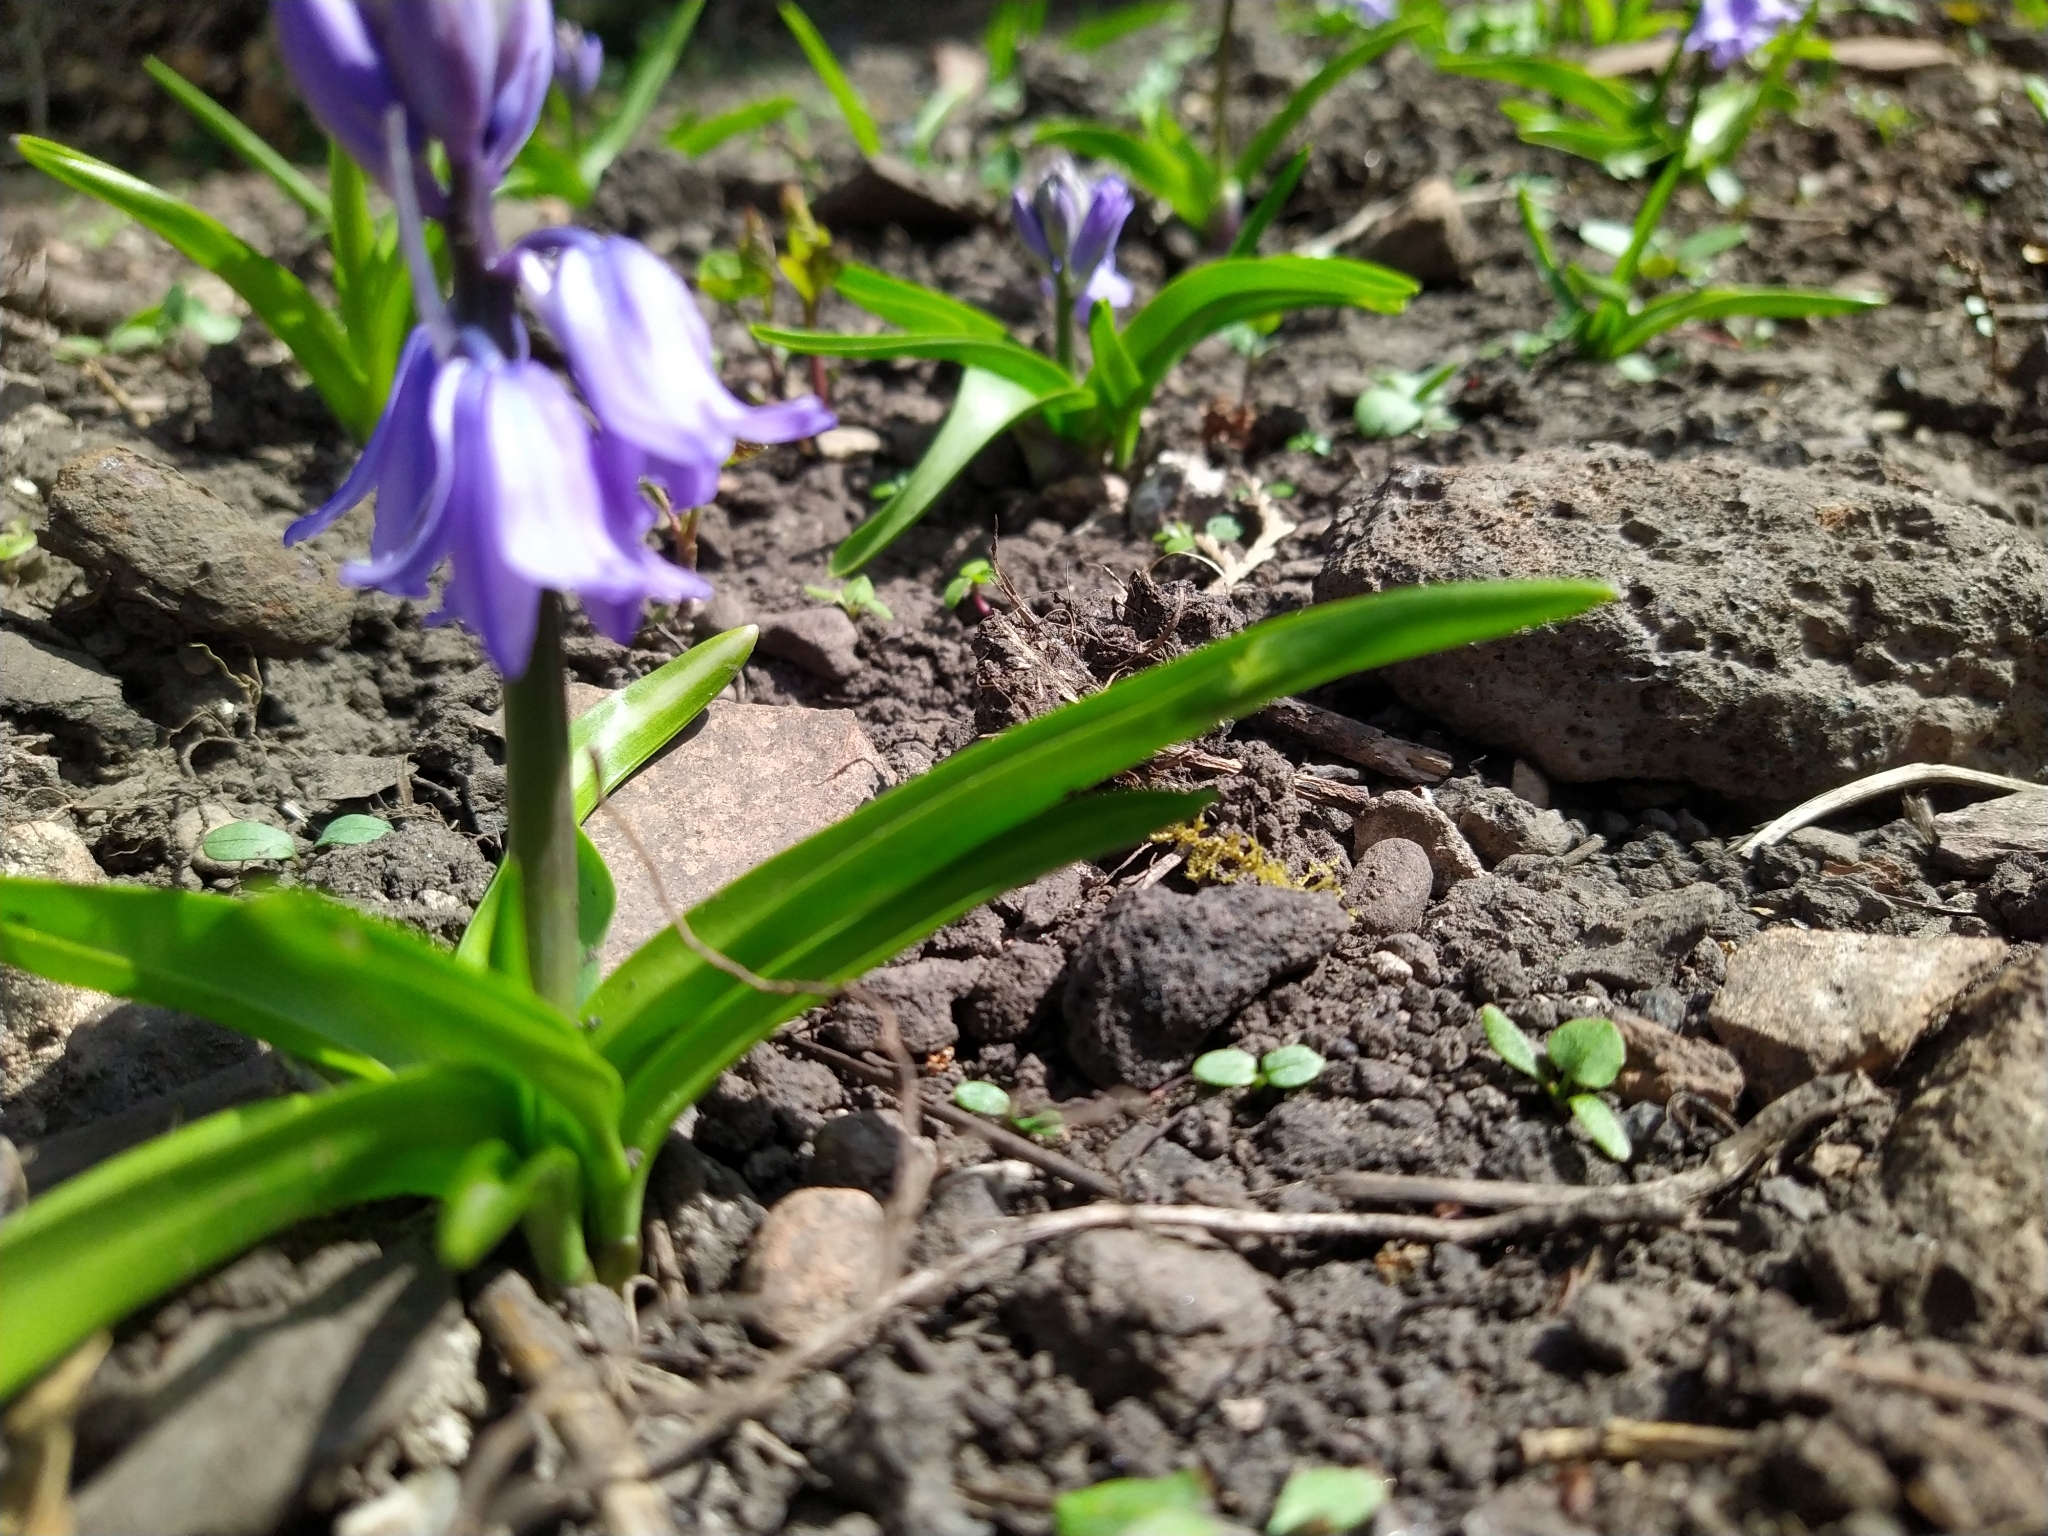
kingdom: Plantae
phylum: Tracheophyta
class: Liliopsida
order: Asparagales
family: Asparagaceae
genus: Hyacinthoides
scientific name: Hyacinthoides hispanica
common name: Spanish bluebell
